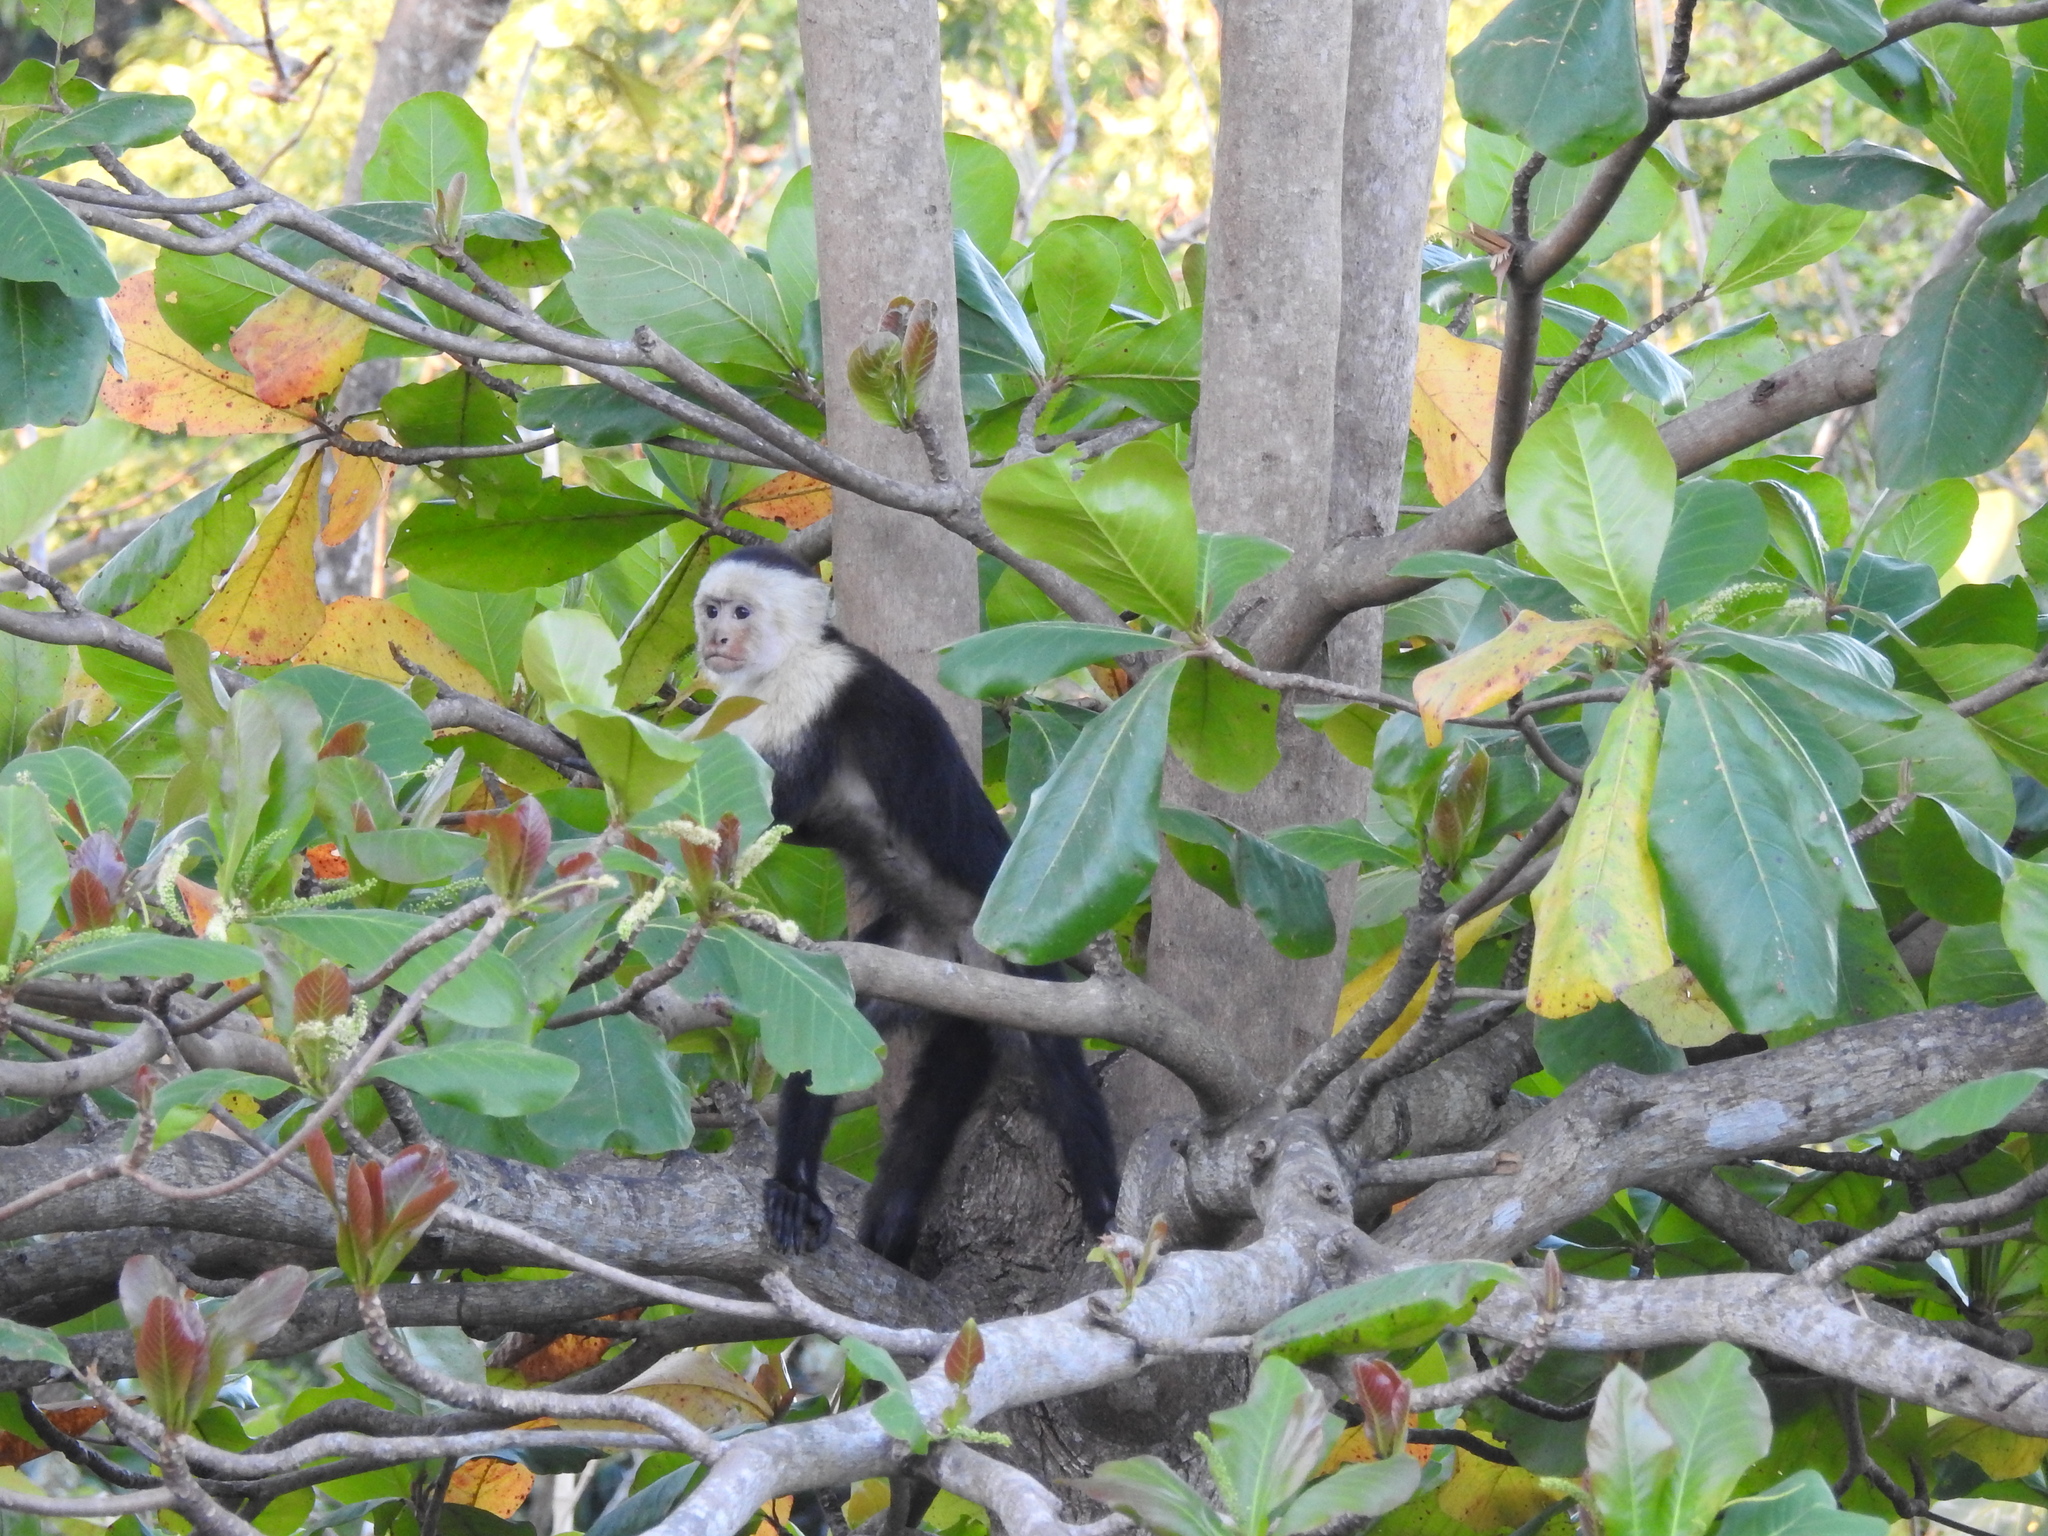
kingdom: Animalia
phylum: Chordata
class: Mammalia
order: Primates
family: Cebidae
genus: Cebus
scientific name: Cebus imitator
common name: Panamanian white-faced capuchin
